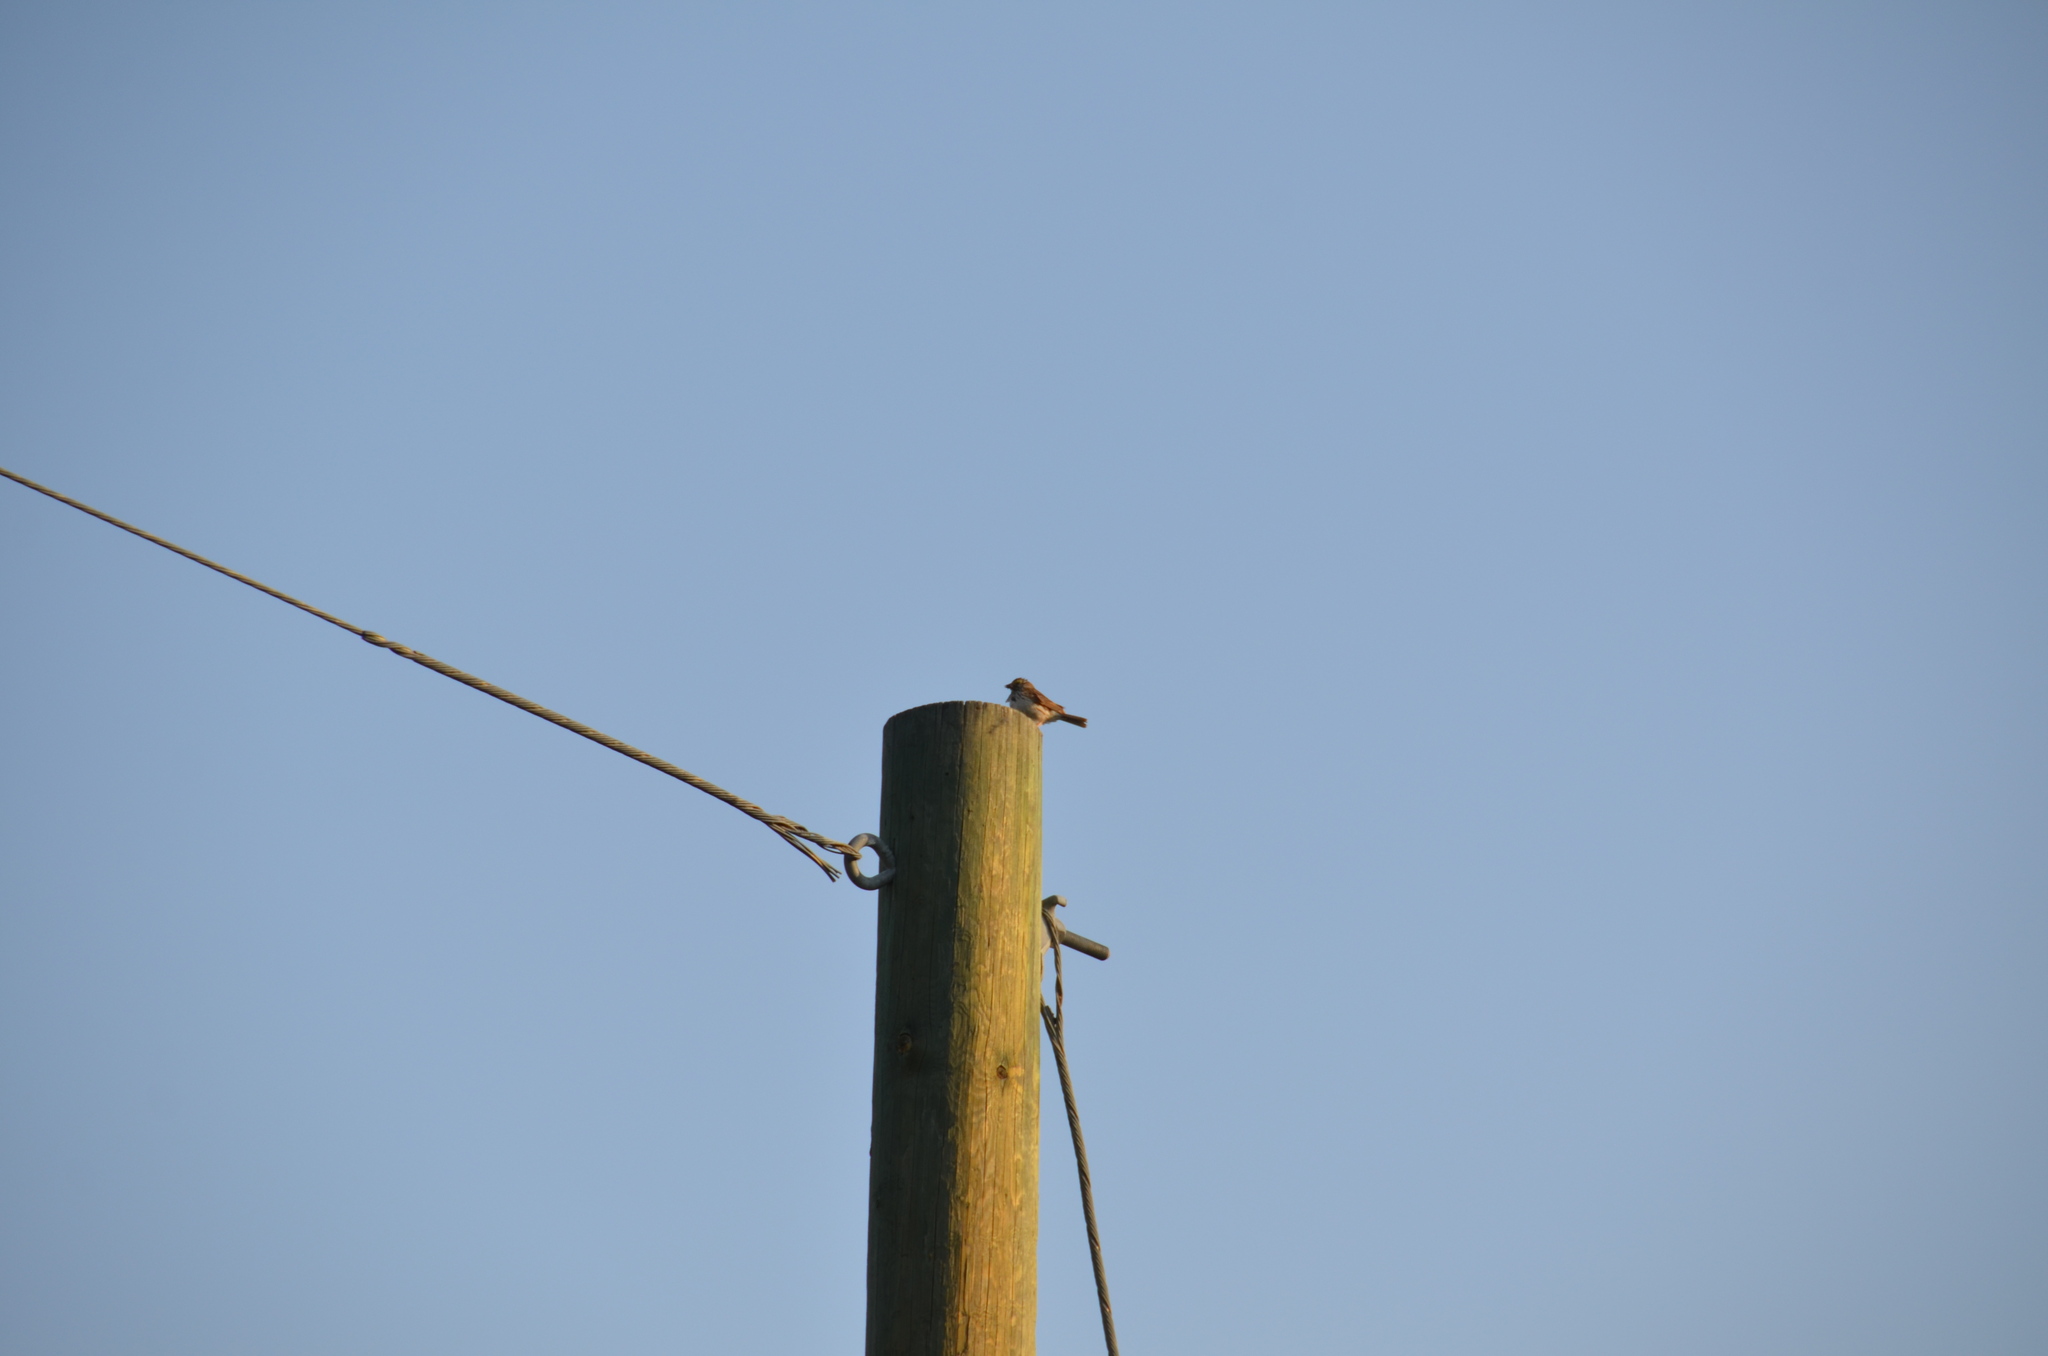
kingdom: Animalia
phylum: Chordata
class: Aves
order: Passeriformes
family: Passerellidae
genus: Passerculus
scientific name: Passerculus sandwichensis
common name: Savannah sparrow
